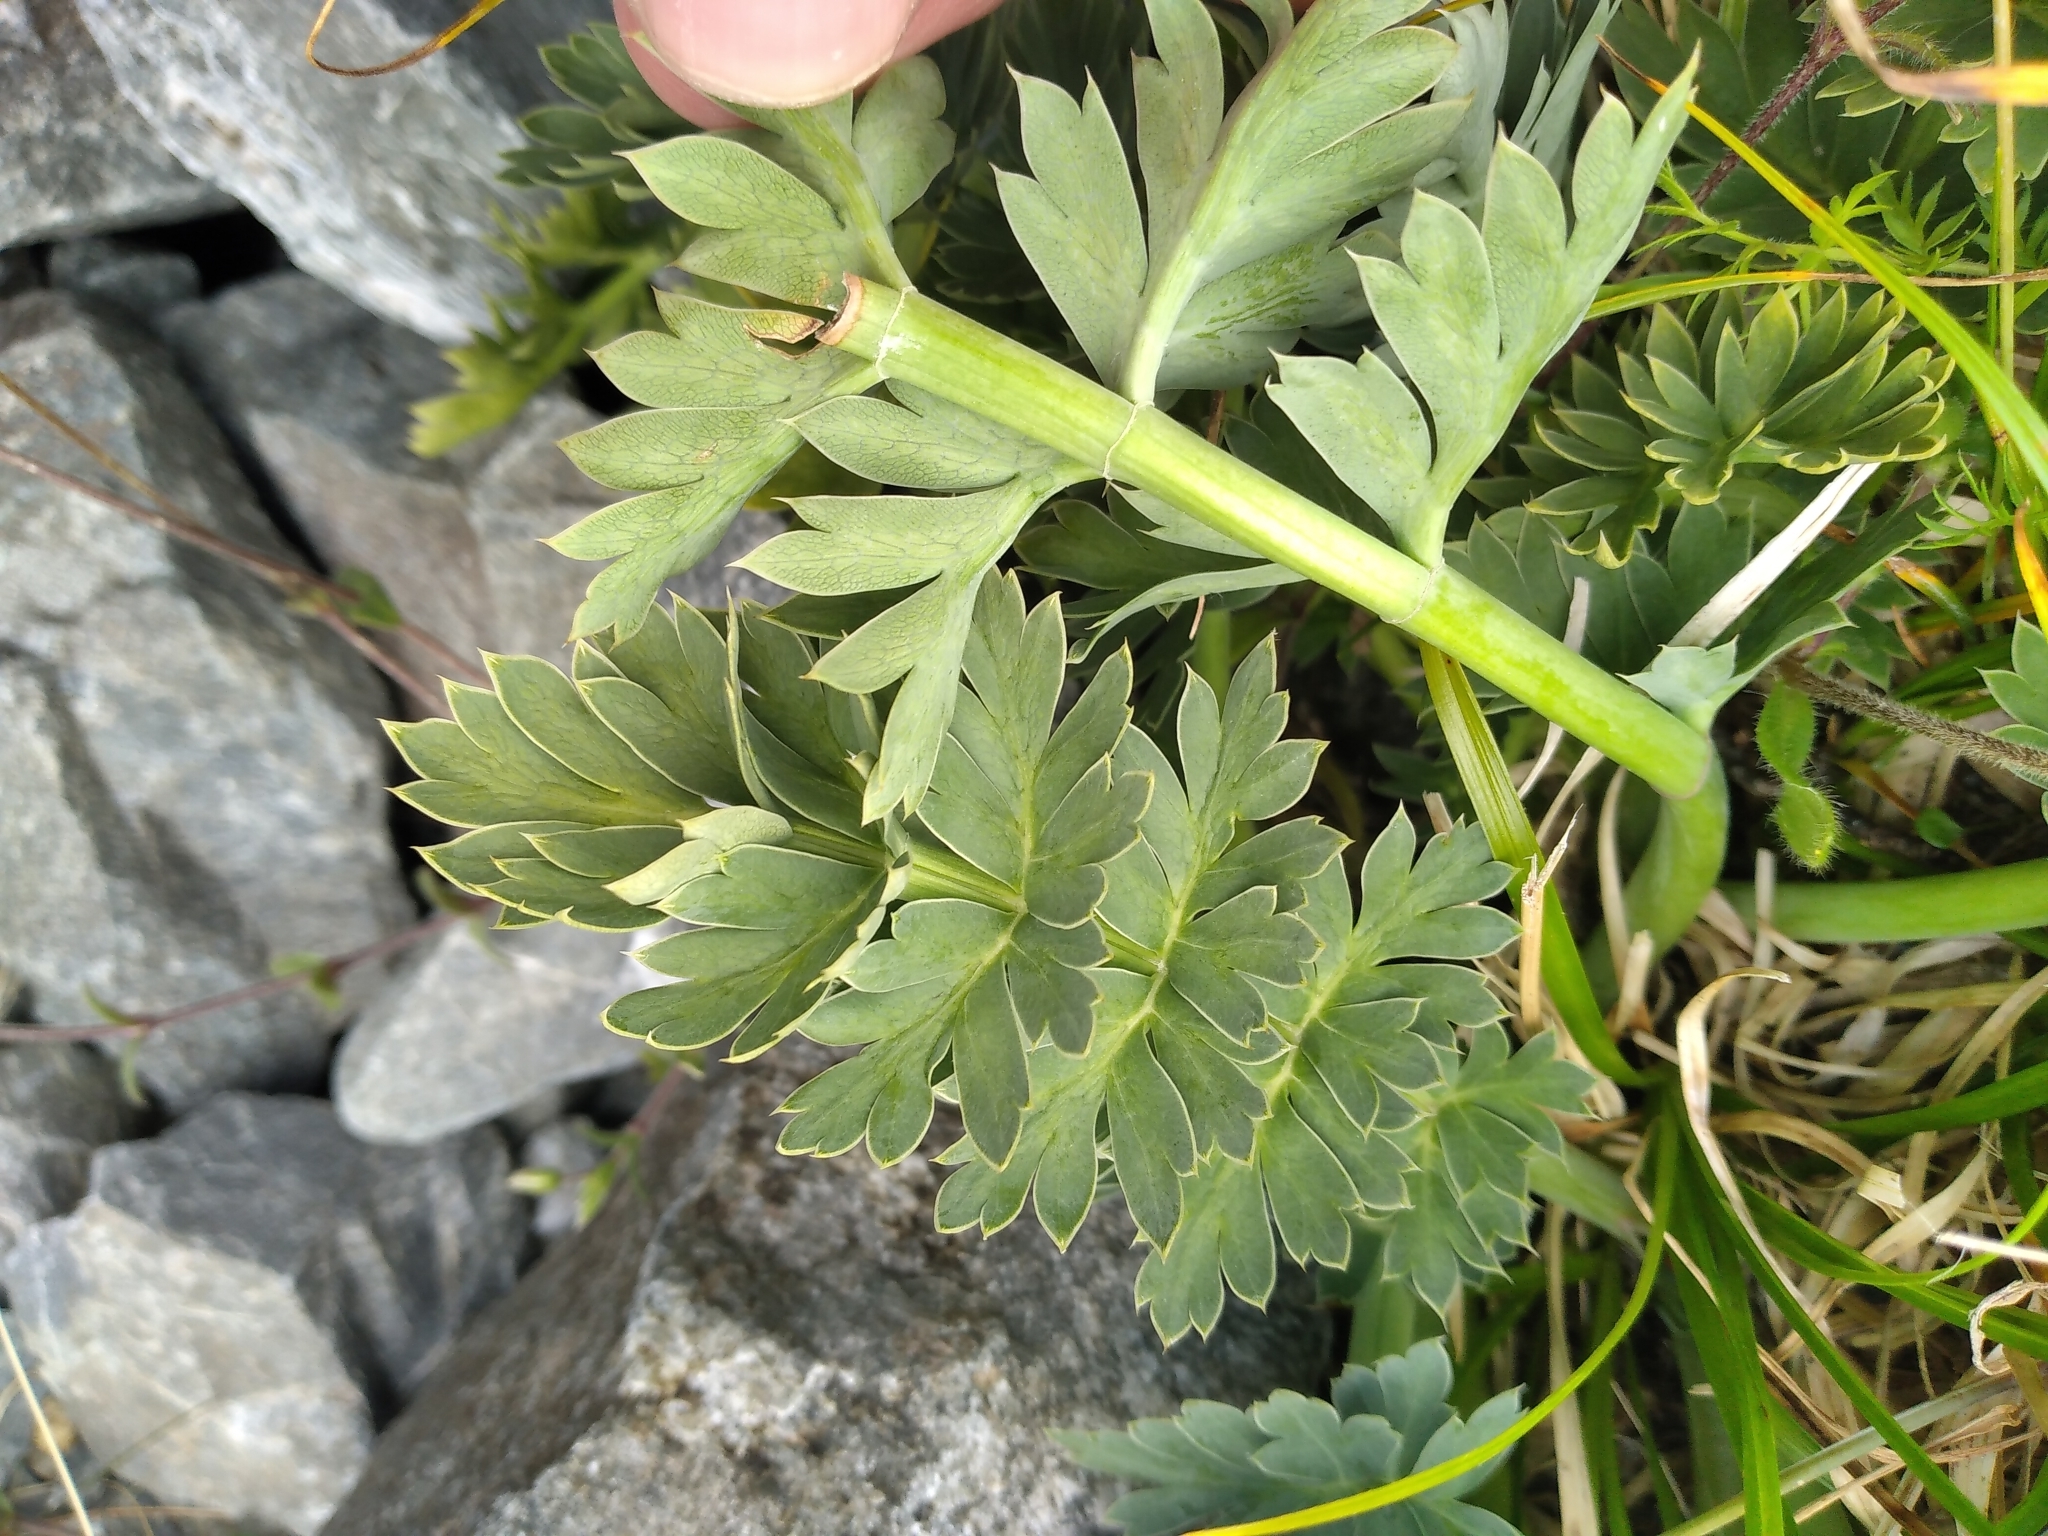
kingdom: Plantae
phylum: Tracheophyta
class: Magnoliopsida
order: Apiales
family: Apiaceae
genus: Anisotome
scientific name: Anisotome pilifera
